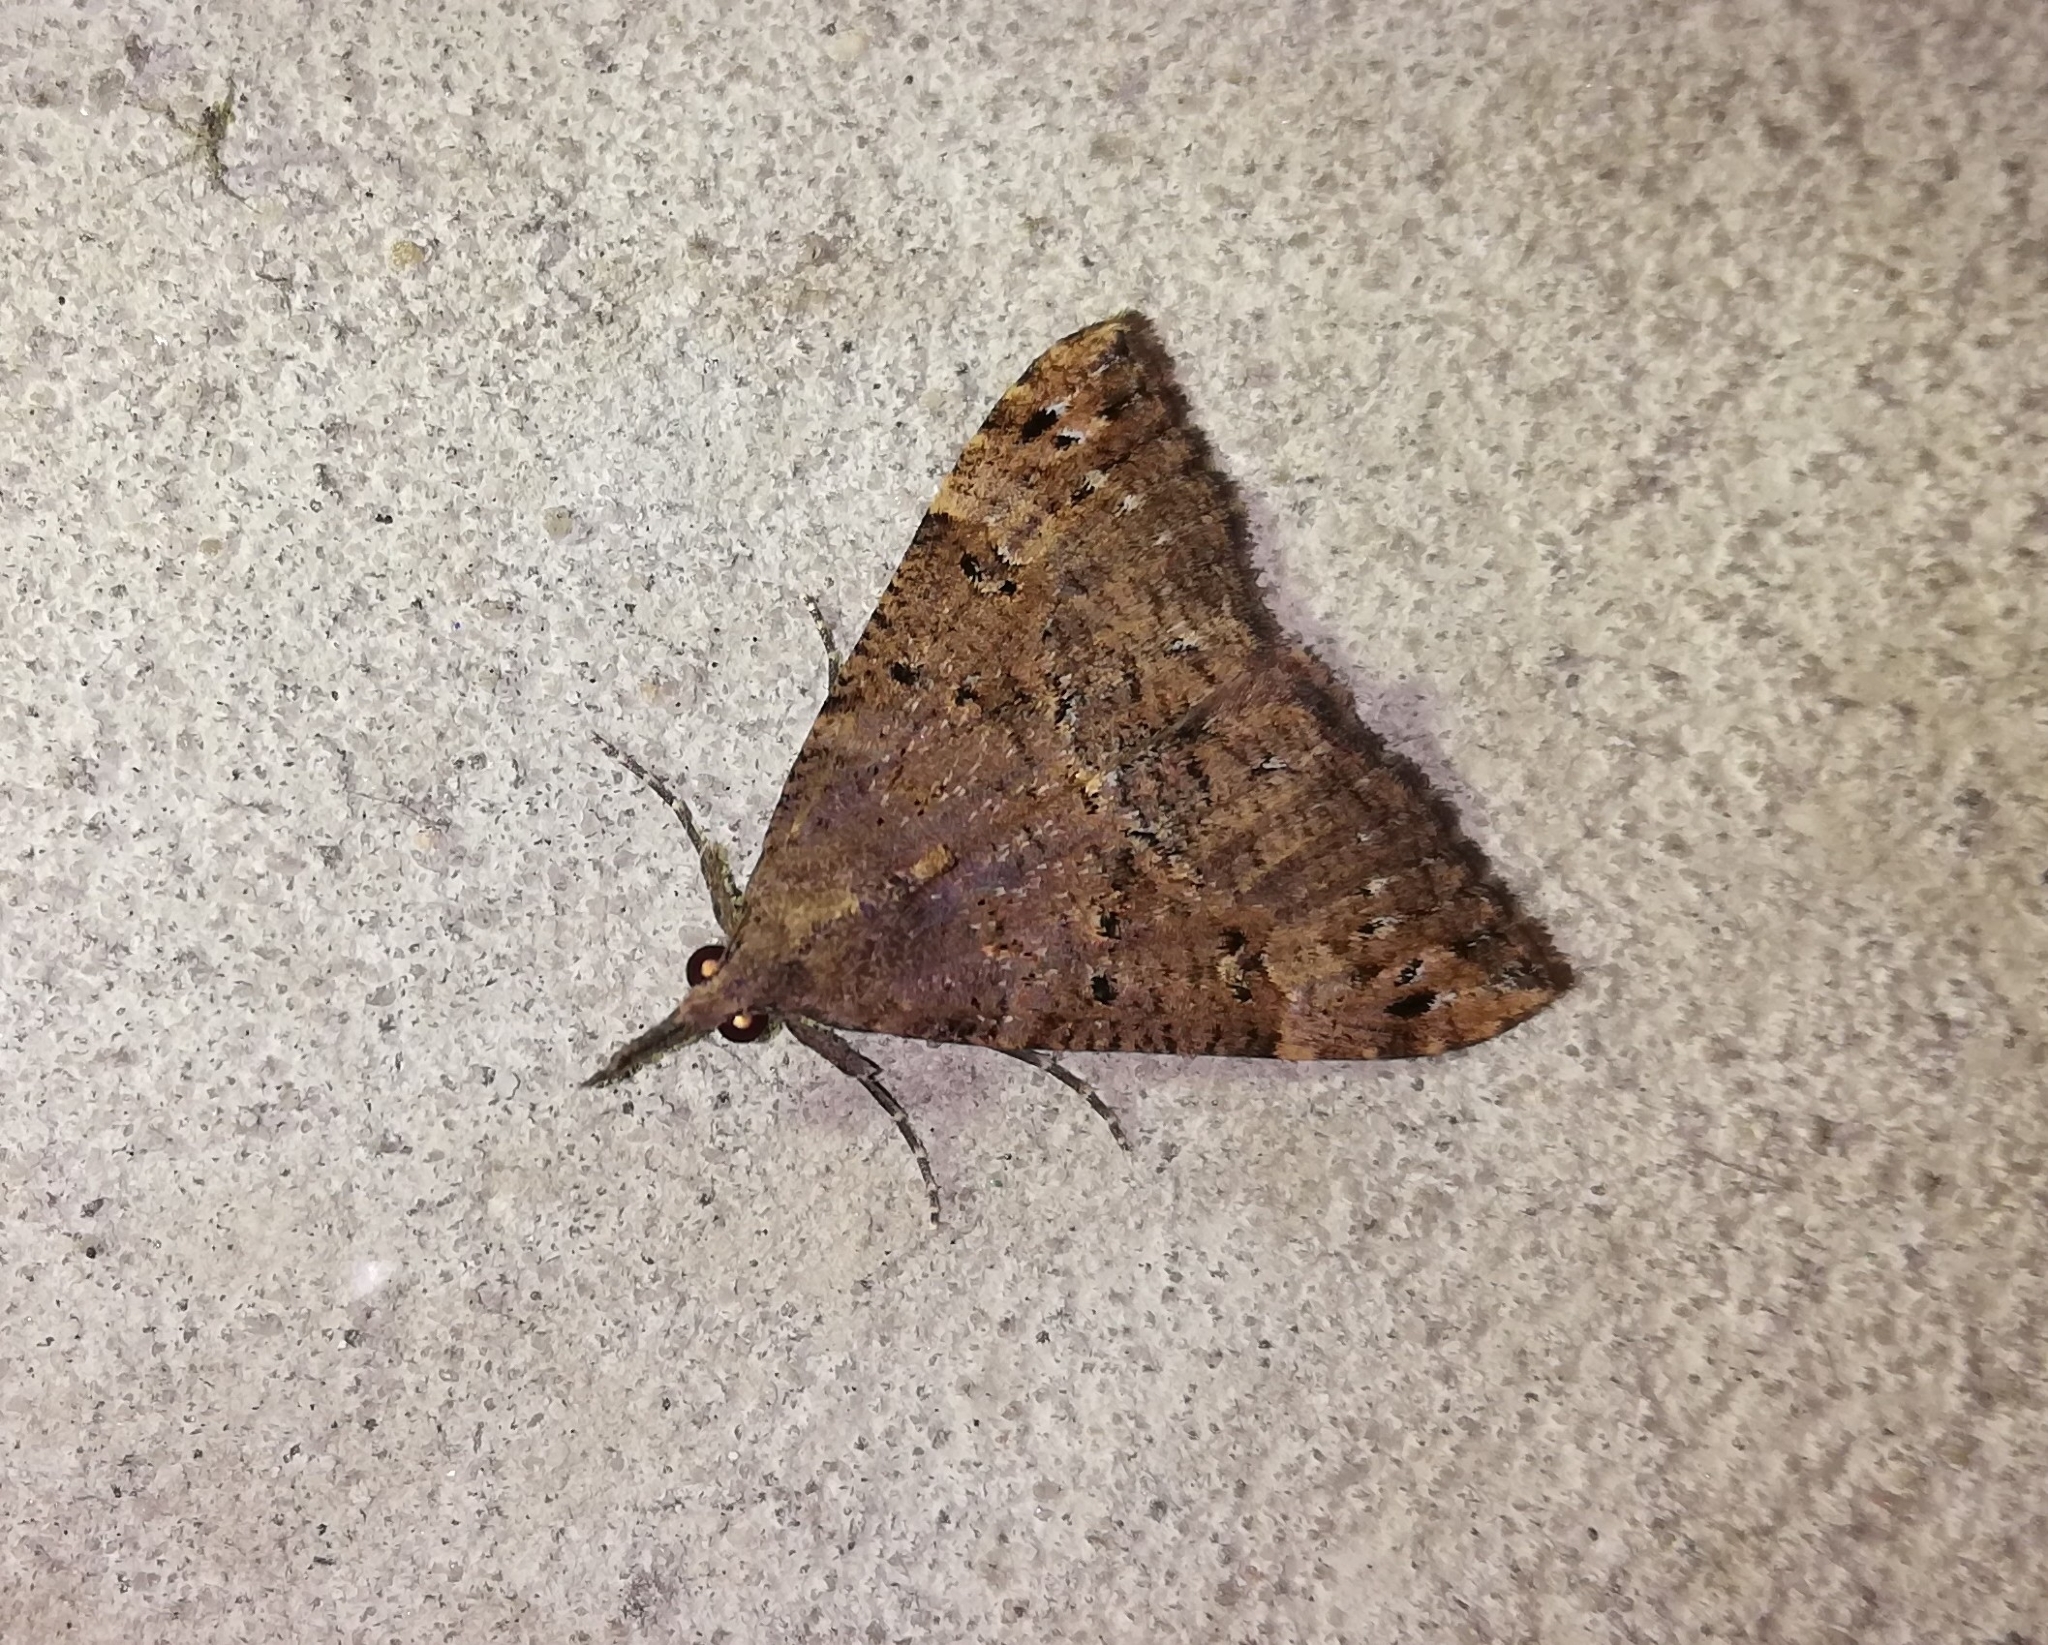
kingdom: Animalia
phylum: Arthropoda
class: Insecta
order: Lepidoptera
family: Erebidae
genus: Hypena
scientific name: Hypena obsitalis
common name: Bloxworth snout
